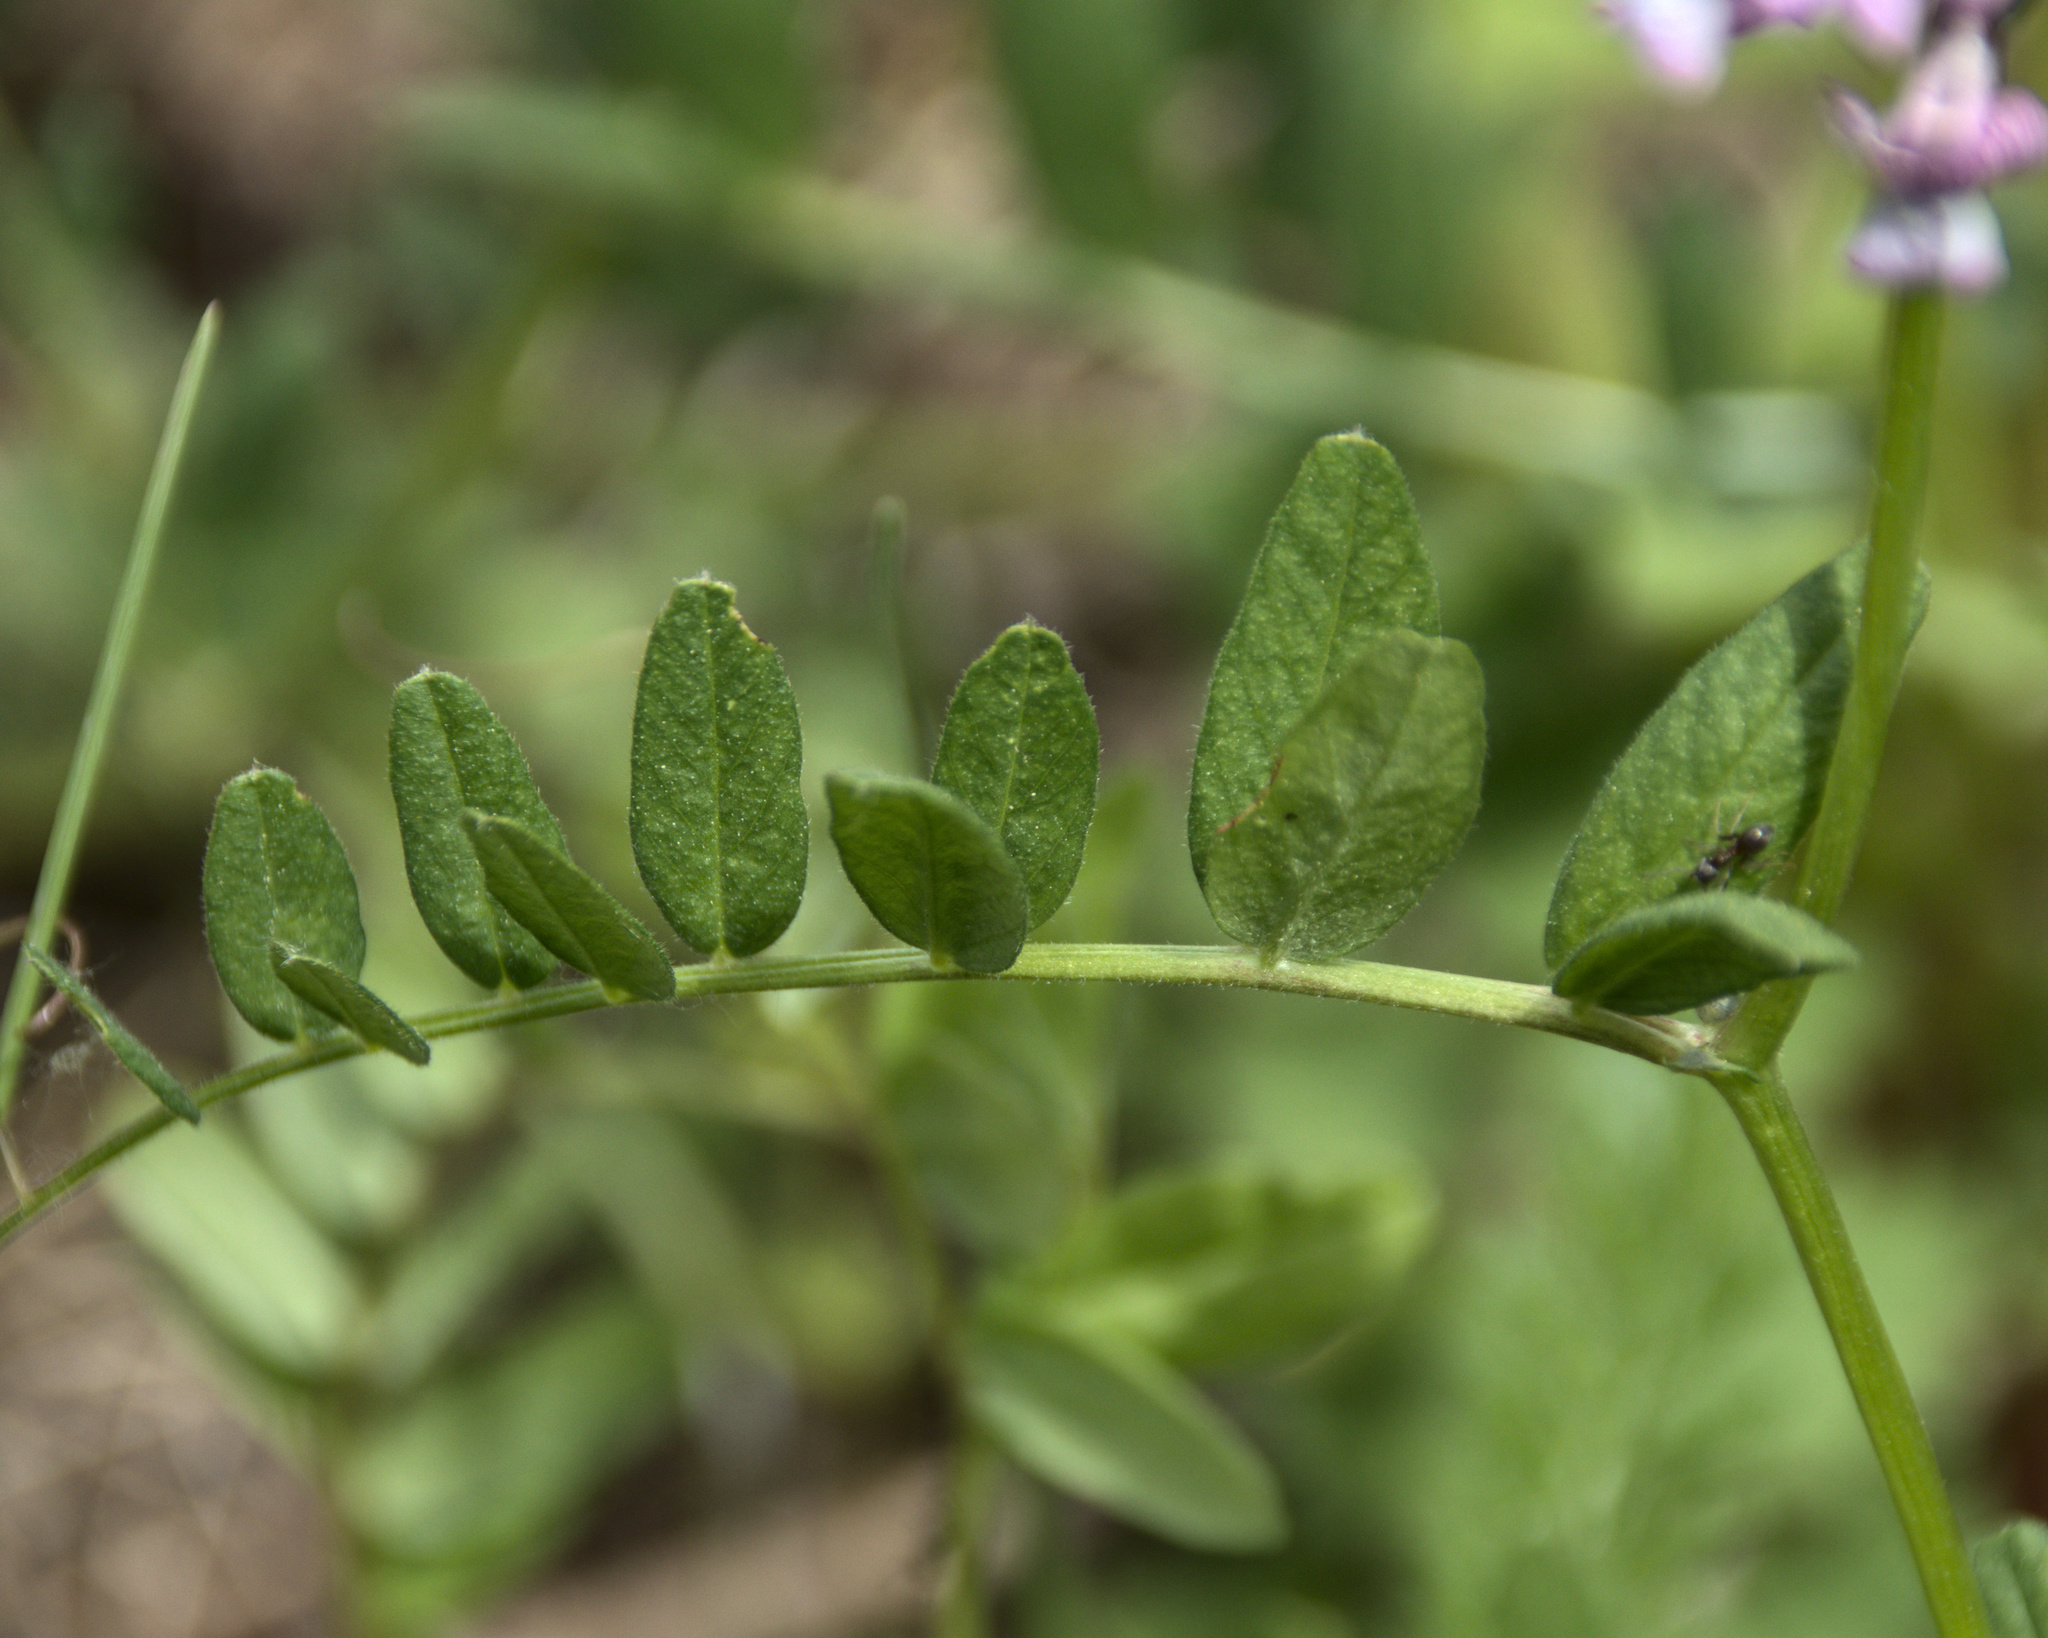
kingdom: Plantae
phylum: Tracheophyta
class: Magnoliopsida
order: Fabales
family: Fabaceae
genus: Vicia
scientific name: Vicia sepium
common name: Bush vetch
